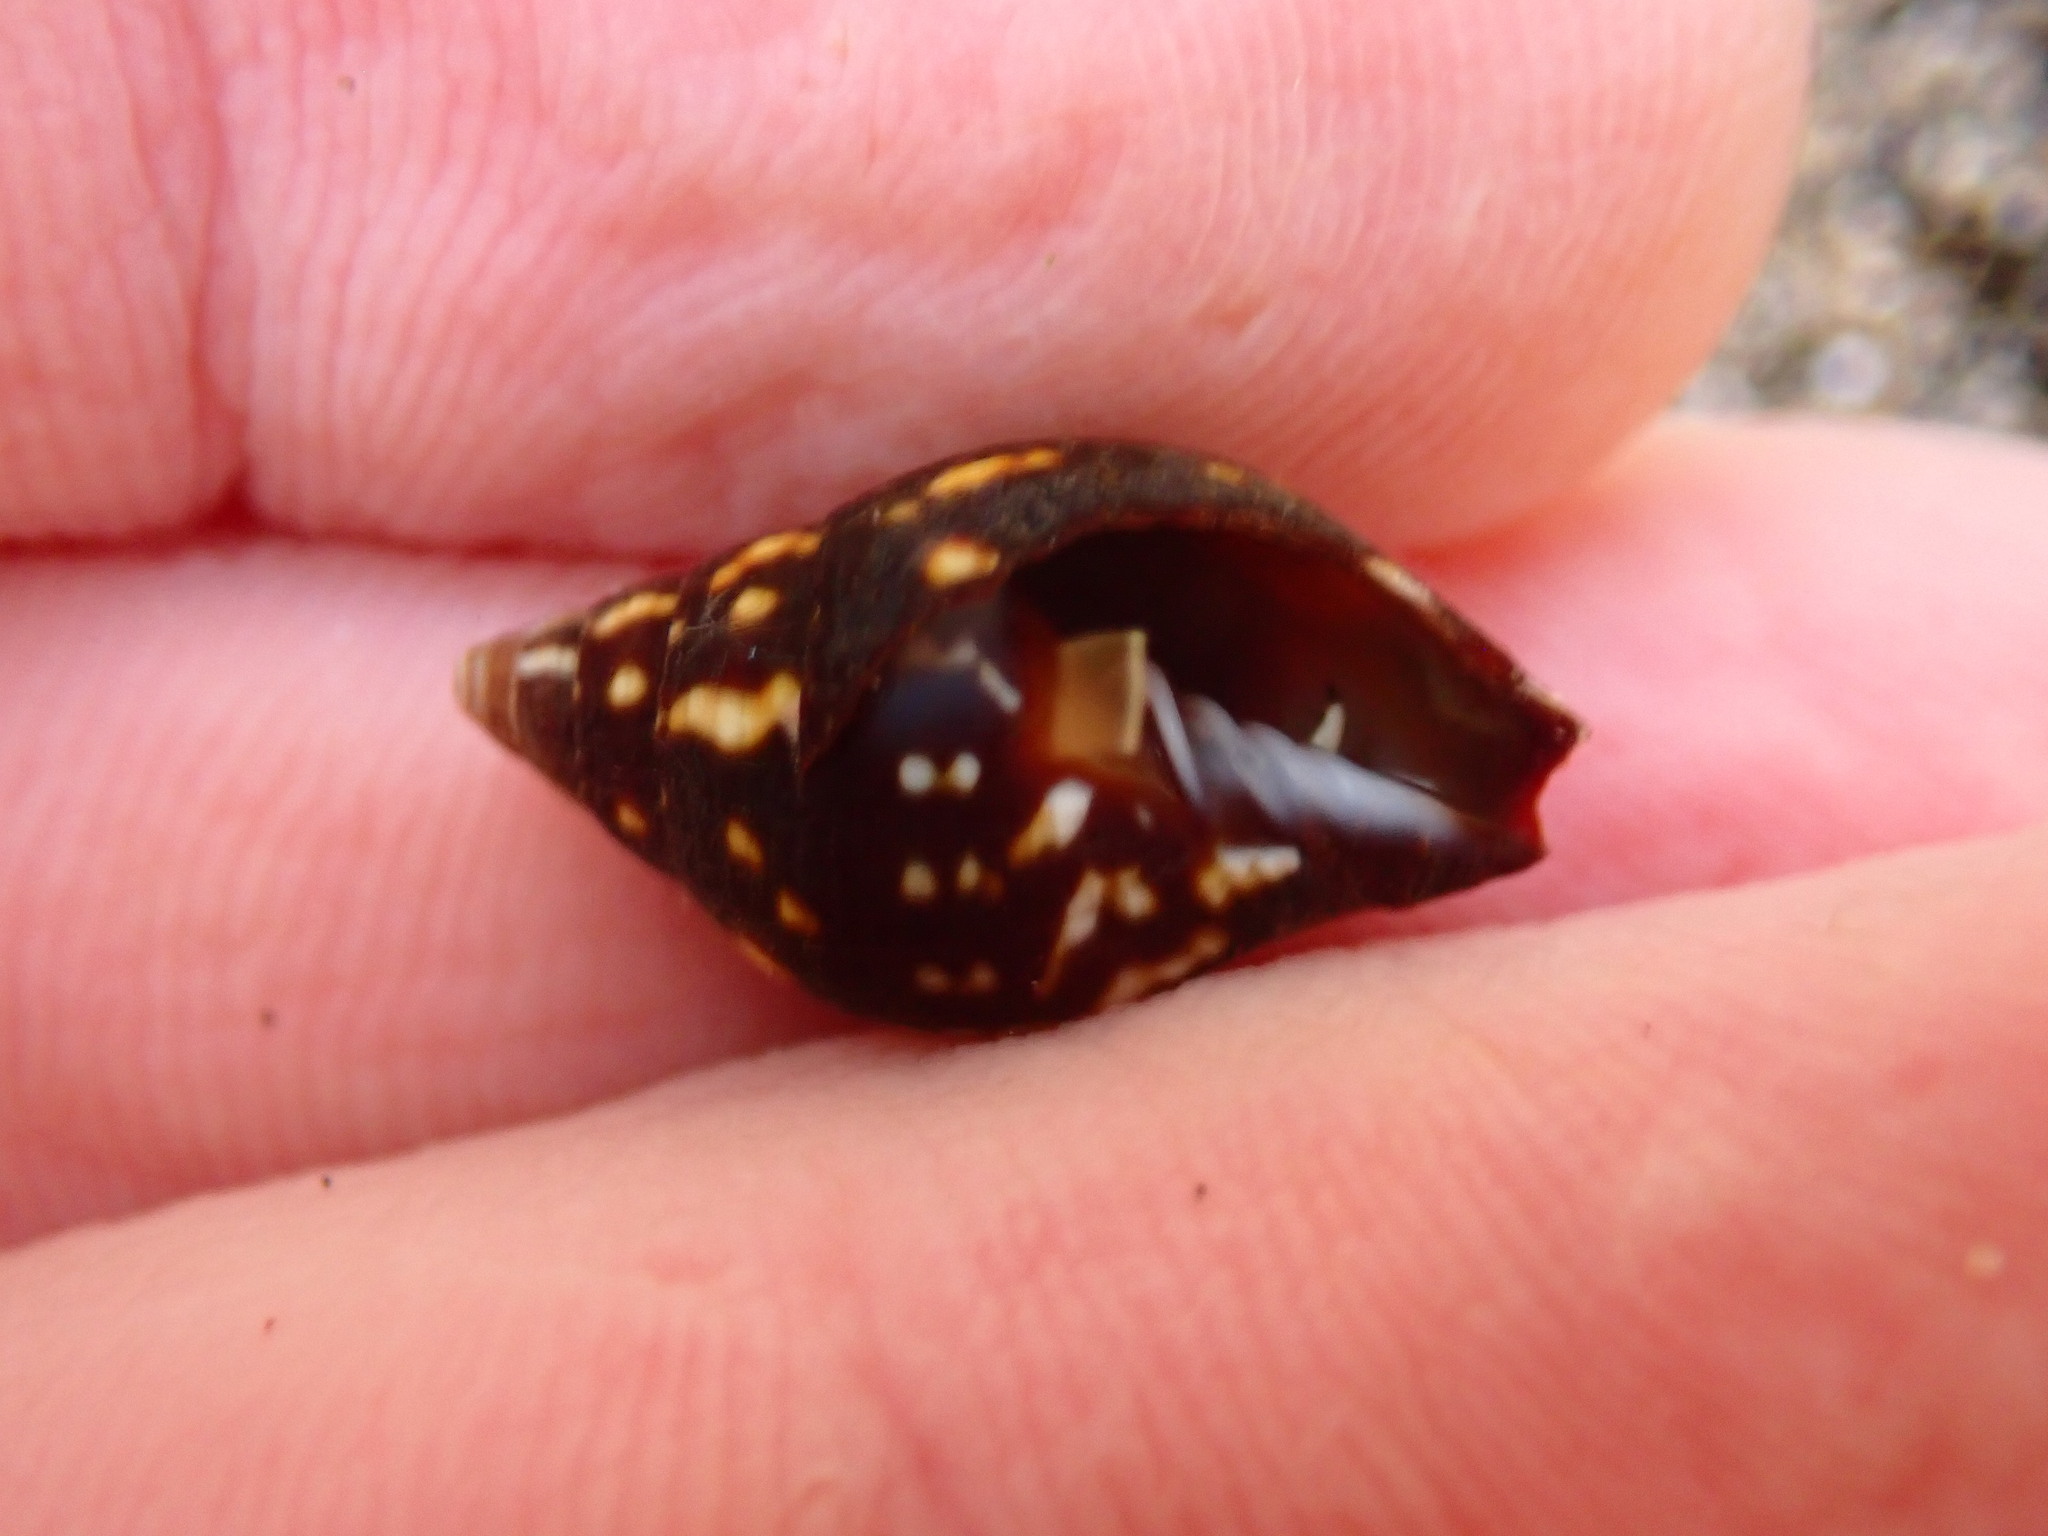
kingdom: Animalia
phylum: Mollusca
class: Gastropoda
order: Neogastropoda
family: Mitridae
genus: Strigatella
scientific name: Strigatella litterata
